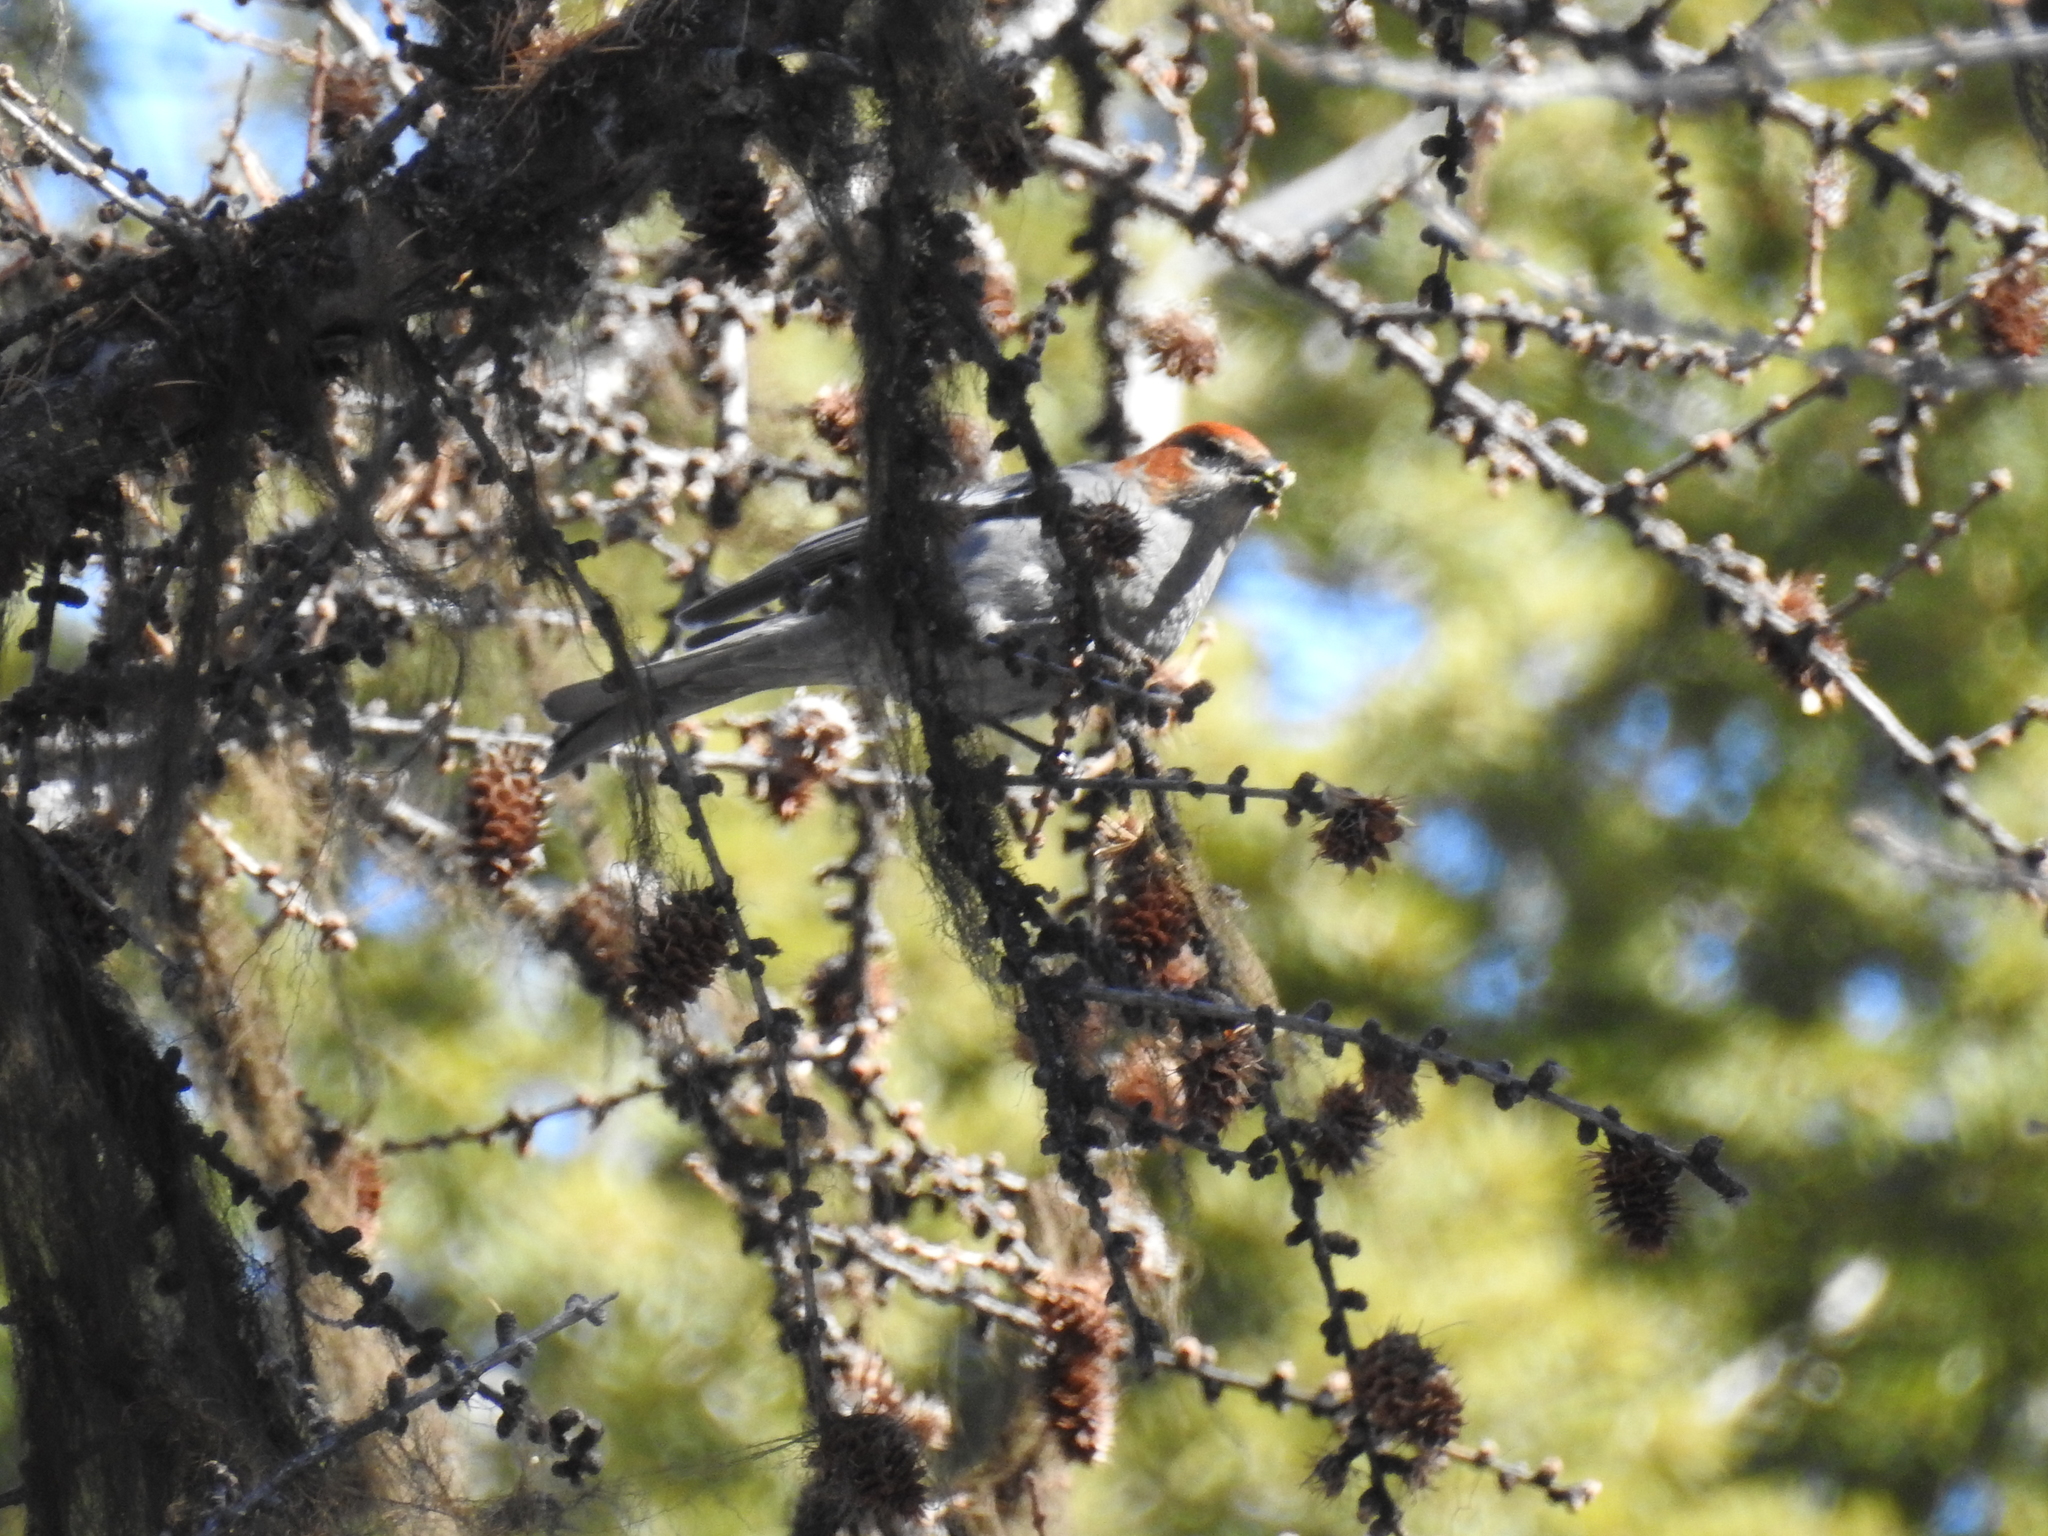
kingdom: Animalia
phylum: Chordata
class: Aves
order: Passeriformes
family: Fringillidae
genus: Pinicola
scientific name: Pinicola enucleator
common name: Pine grosbeak
